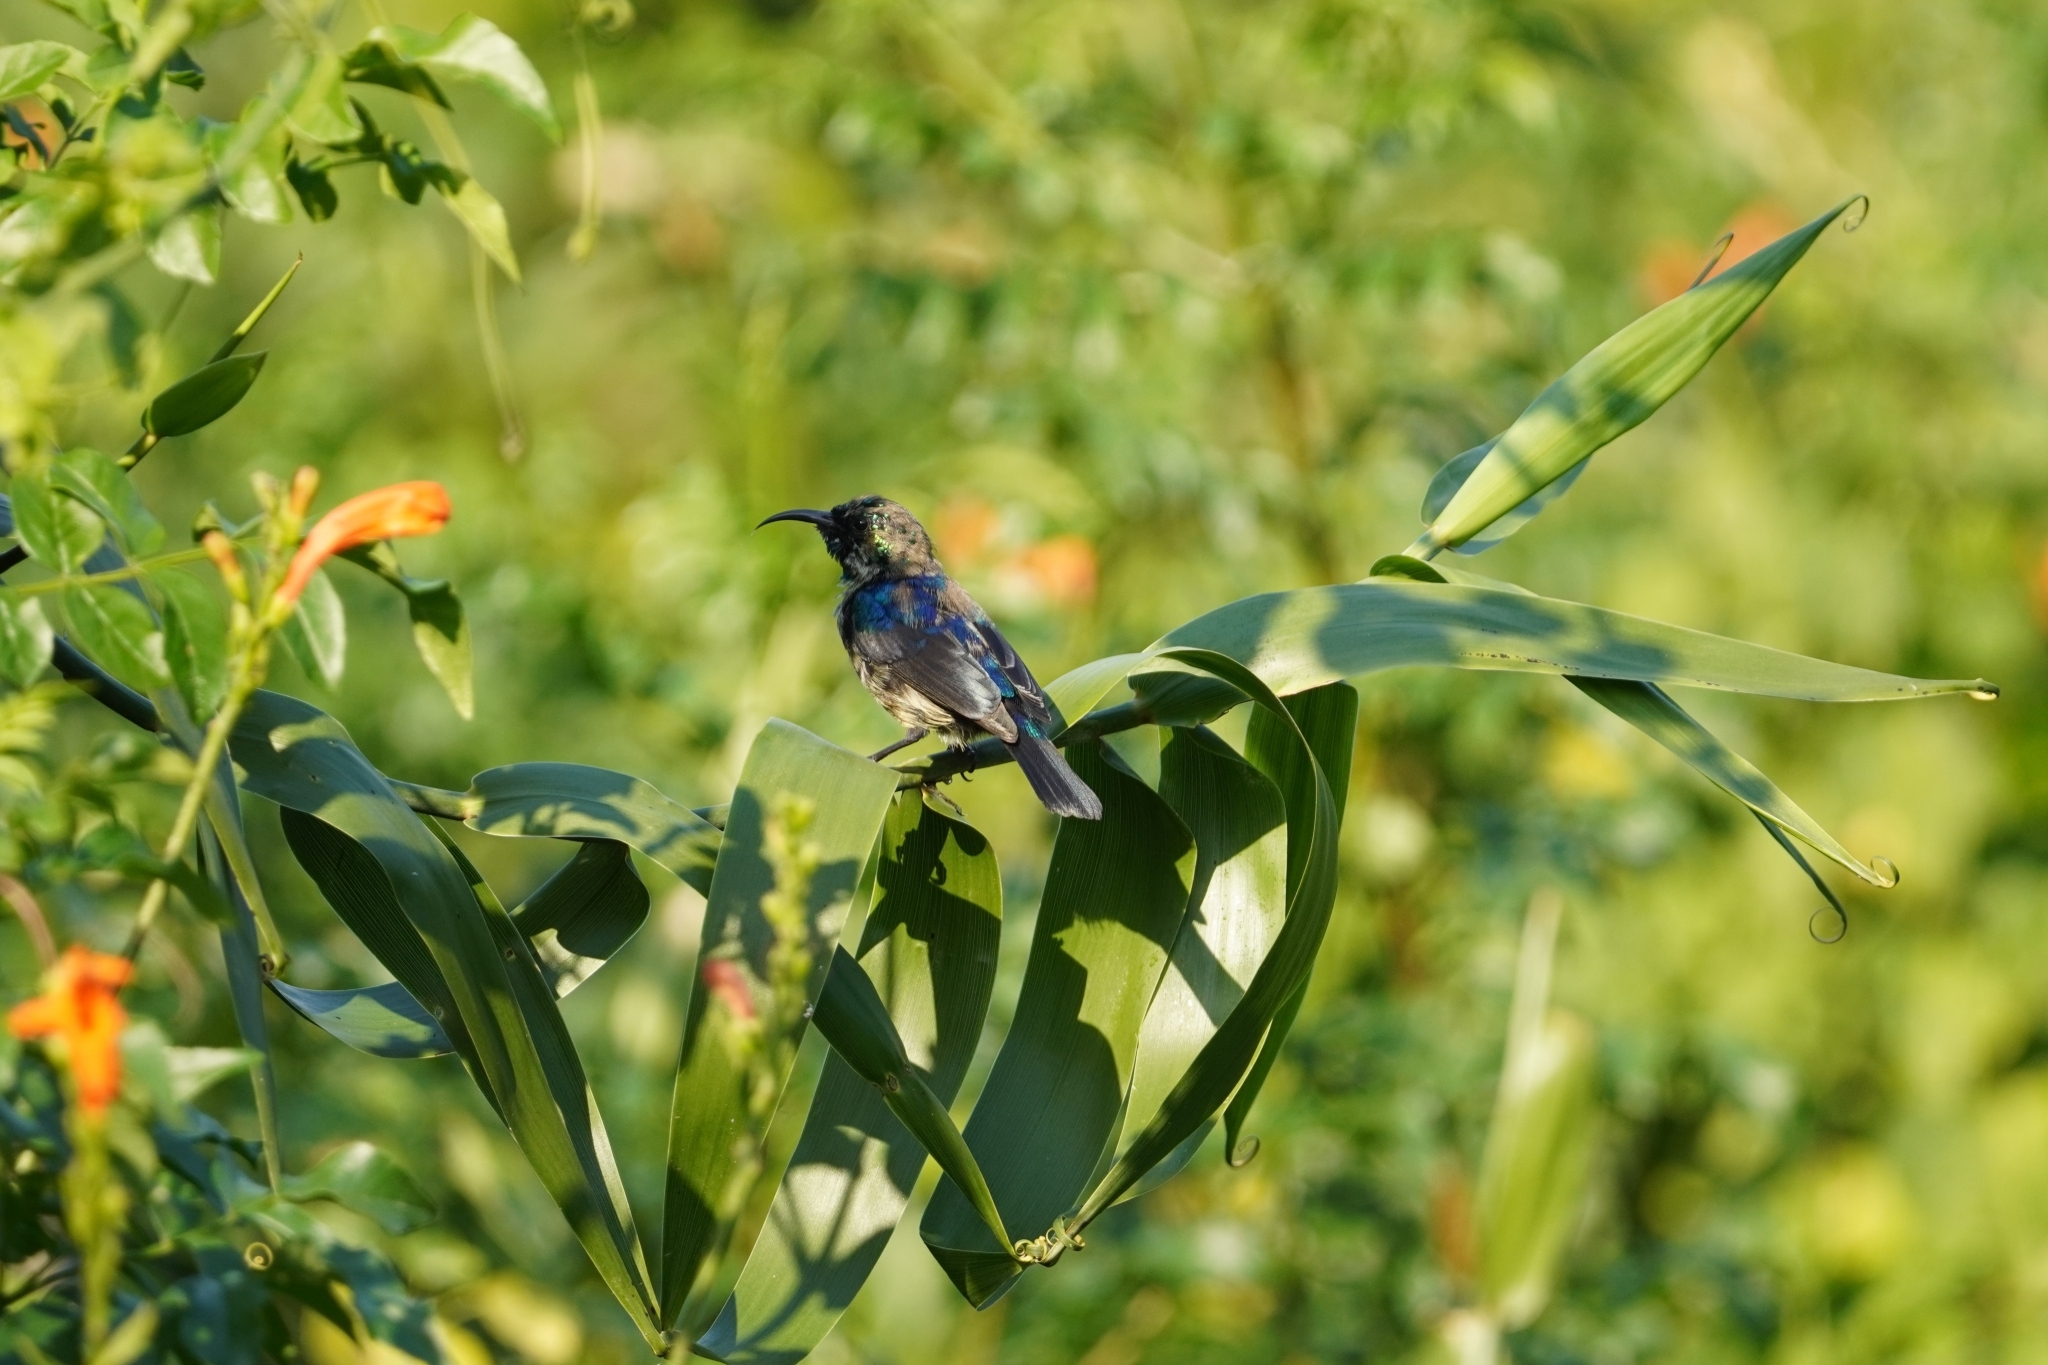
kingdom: Animalia
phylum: Chordata
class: Aves
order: Passeriformes
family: Nectariniidae
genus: Cinnyris
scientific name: Cinnyris talatala
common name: White-bellied sunbird
